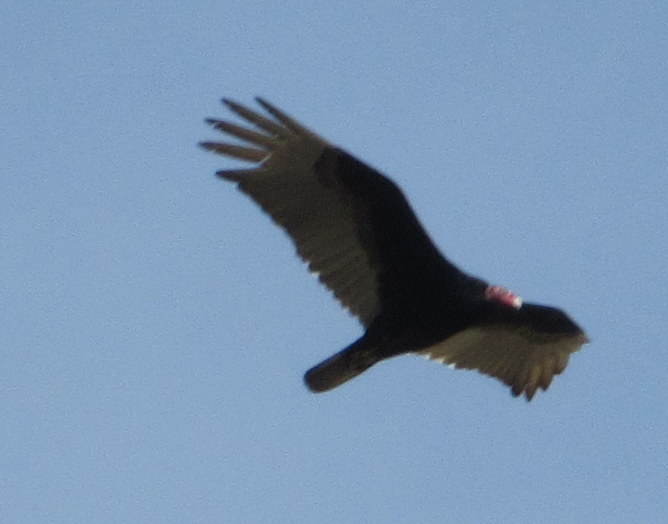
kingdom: Animalia
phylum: Chordata
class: Aves
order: Accipitriformes
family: Cathartidae
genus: Cathartes
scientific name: Cathartes aura
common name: Turkey vulture
